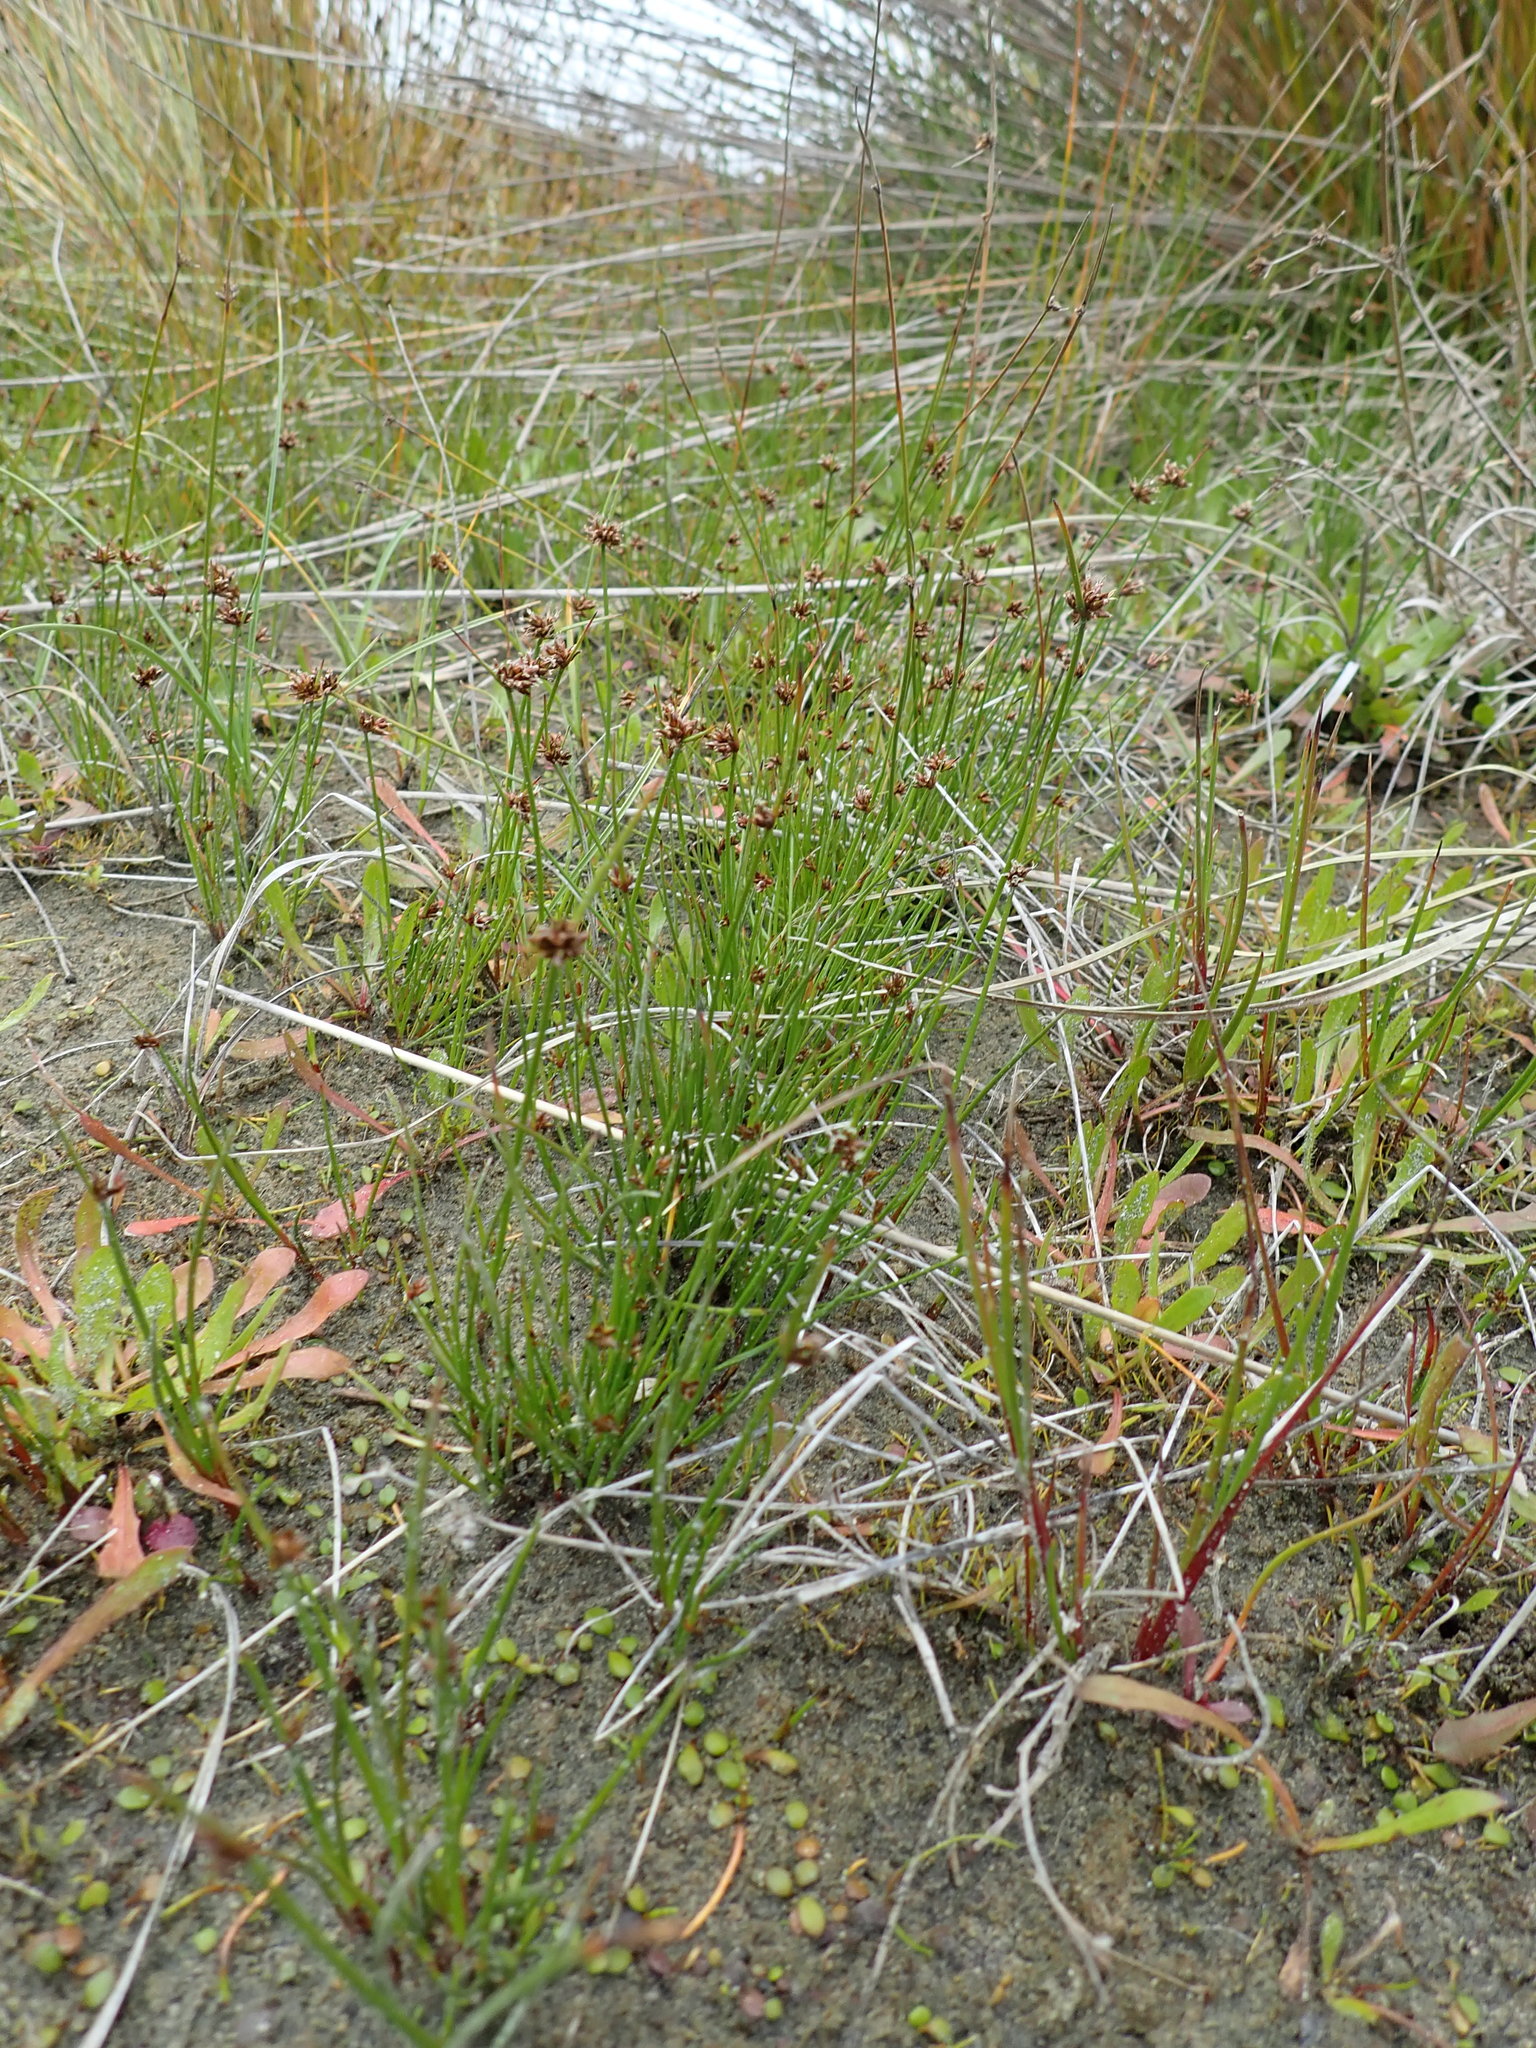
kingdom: Plantae
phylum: Tracheophyta
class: Liliopsida
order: Poales
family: Cyperaceae
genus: Schoenus
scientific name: Schoenus nitens
